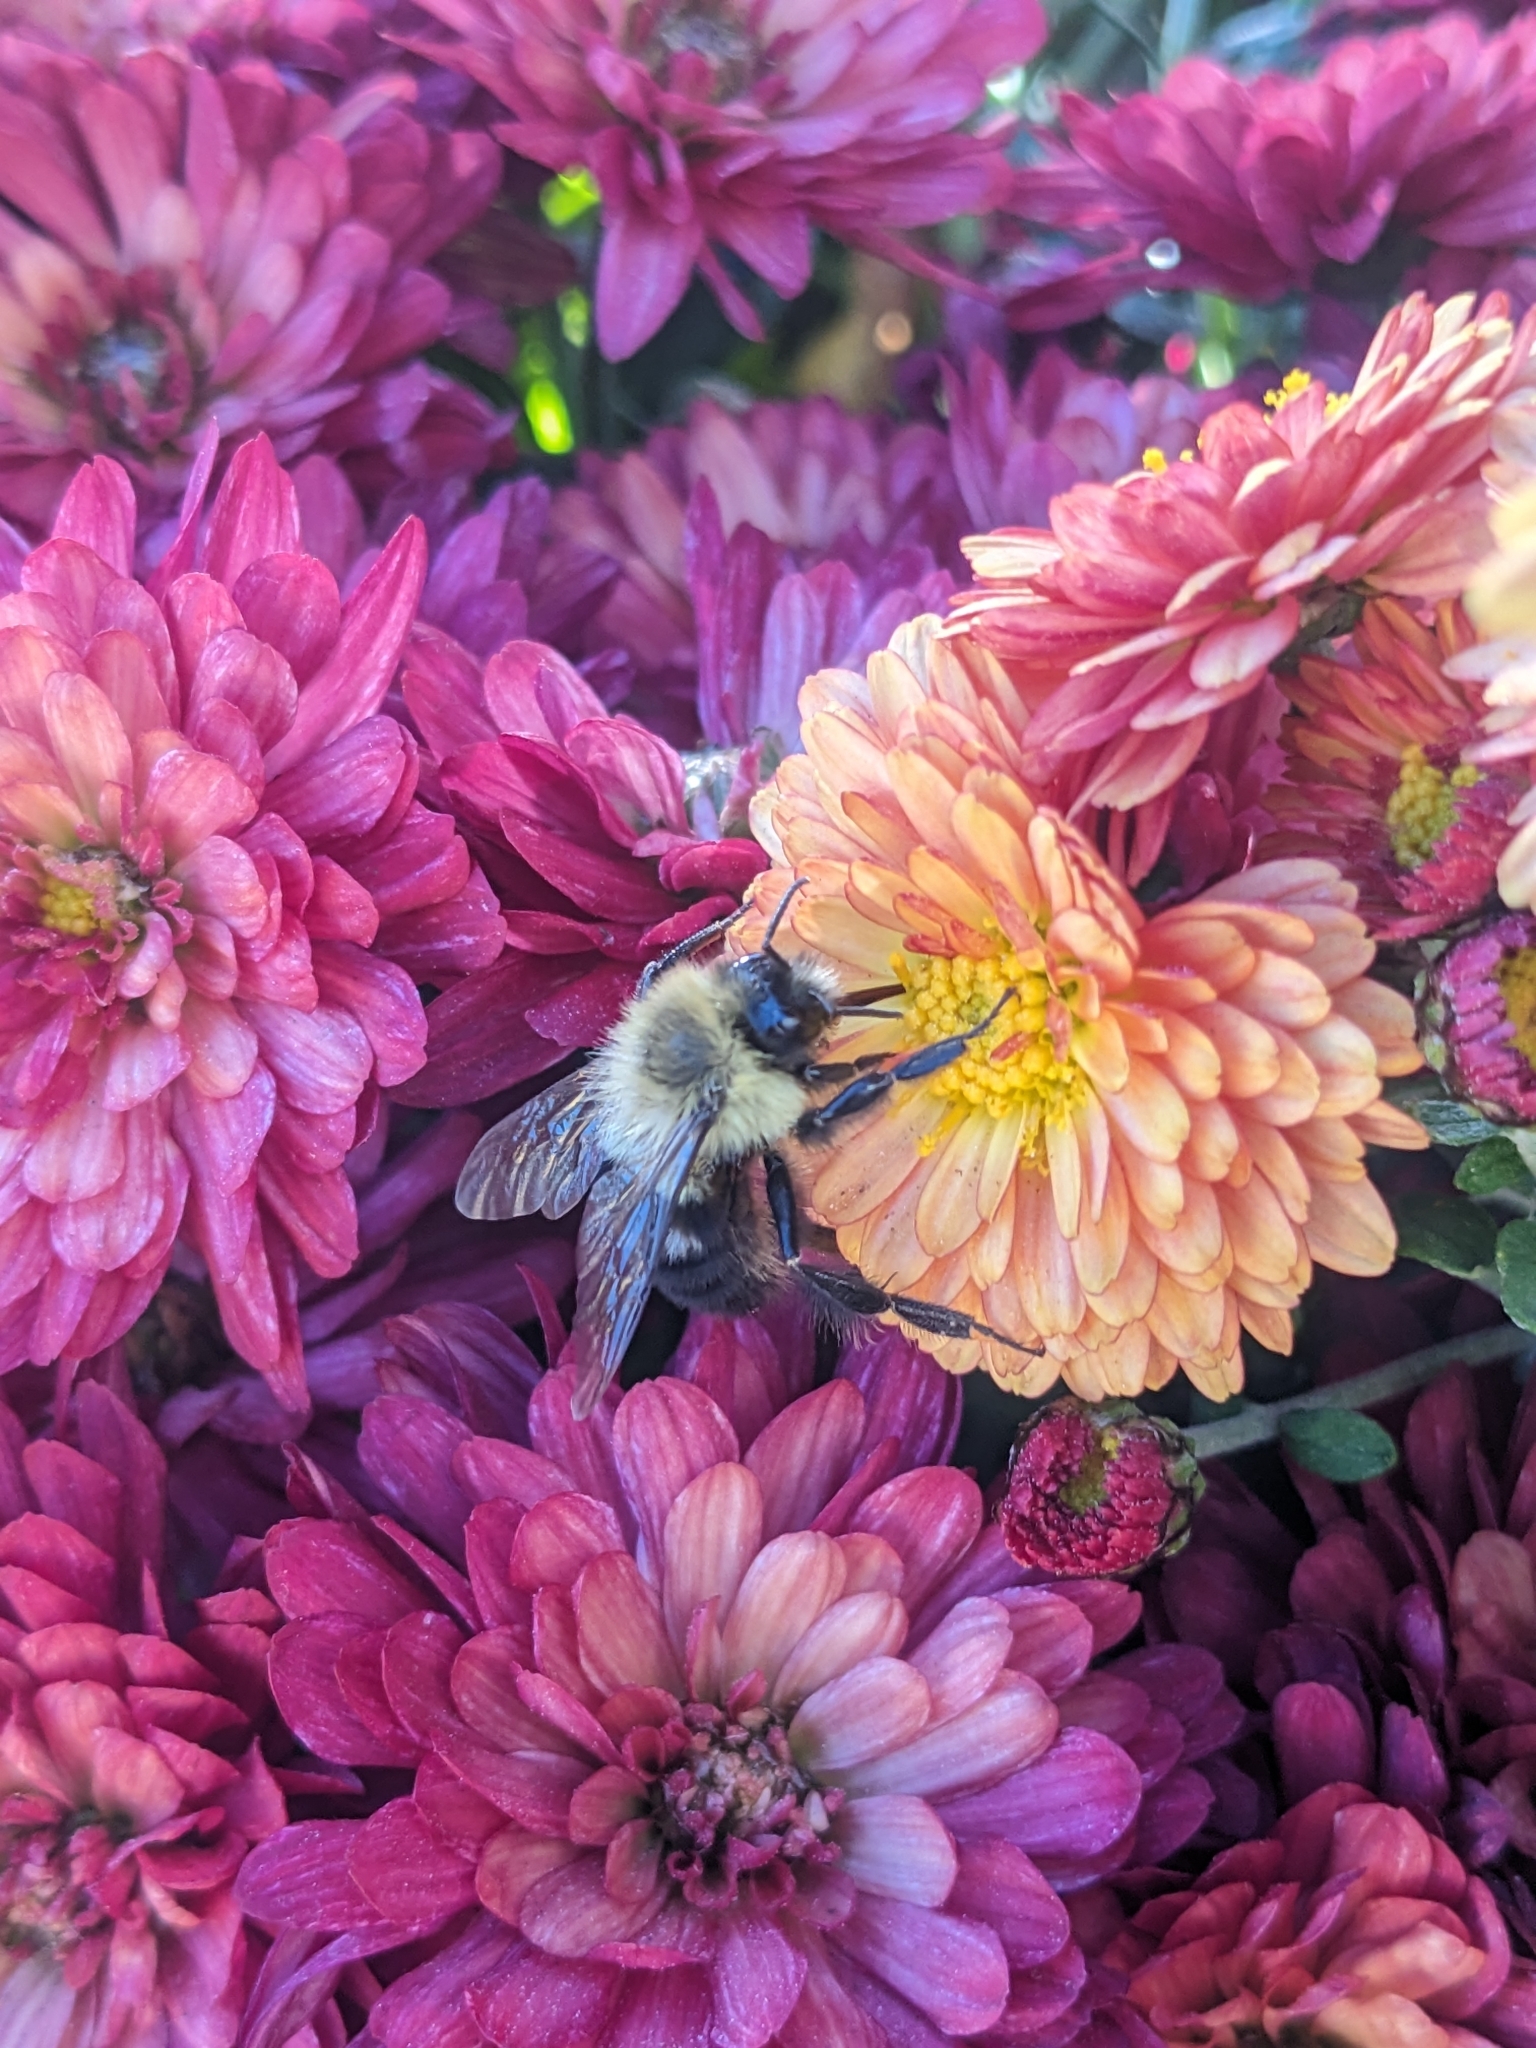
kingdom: Animalia
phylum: Arthropoda
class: Insecta
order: Hymenoptera
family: Apidae
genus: Bombus
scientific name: Bombus impatiens
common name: Common eastern bumble bee
